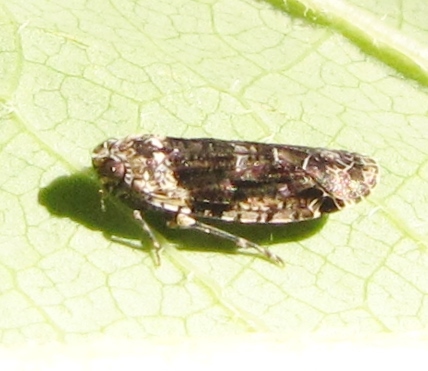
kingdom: Animalia
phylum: Arthropoda
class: Insecta
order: Hemiptera
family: Achilidae
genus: Catonia
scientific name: Catonia nava
